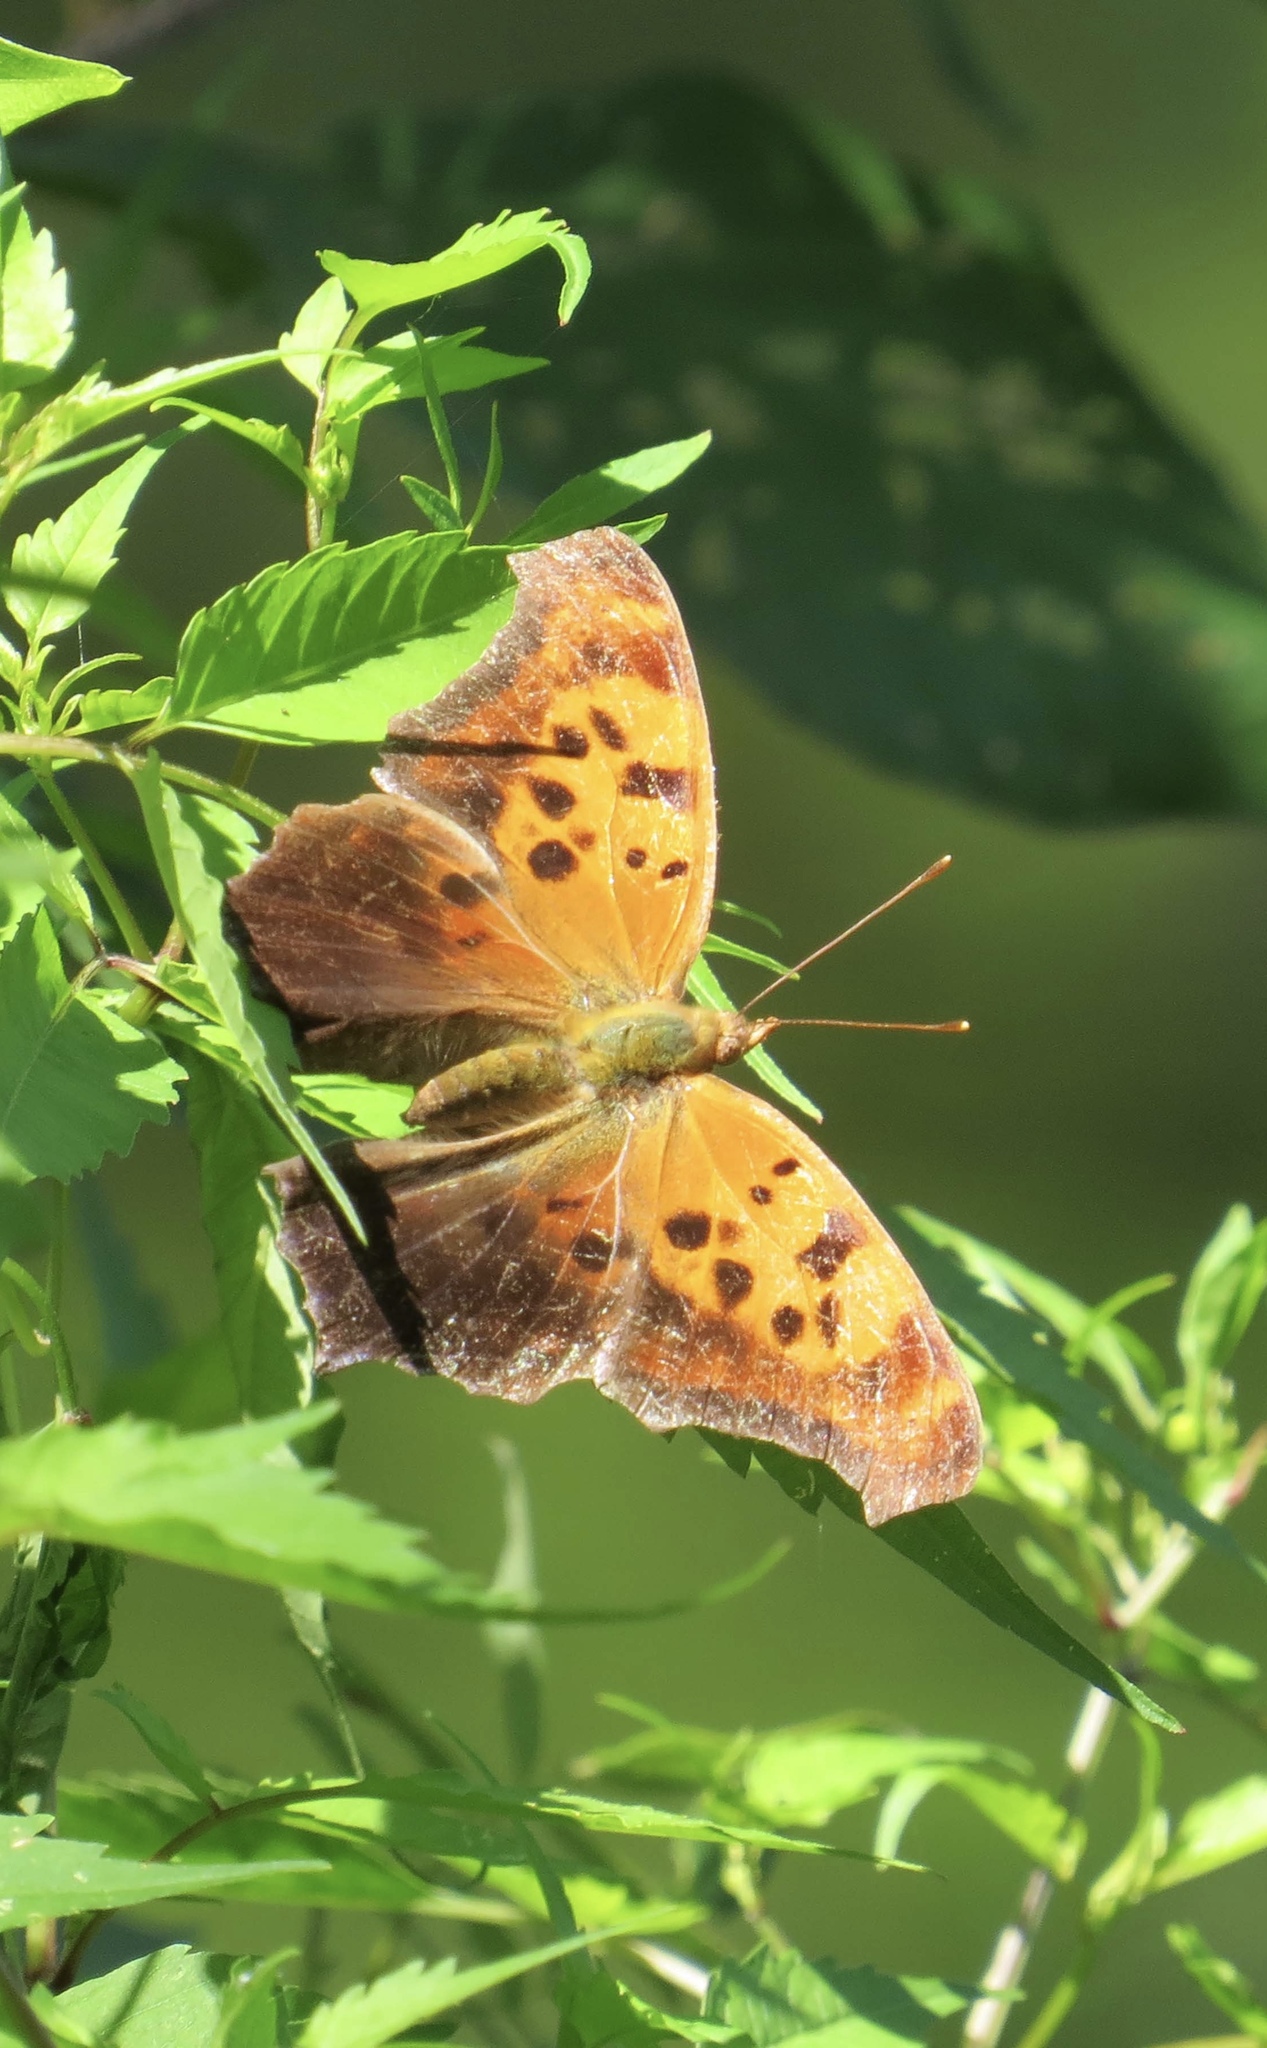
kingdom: Animalia
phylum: Arthropoda
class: Insecta
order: Lepidoptera
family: Nymphalidae
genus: Polygonia
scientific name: Polygonia interrogationis
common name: Question mark
